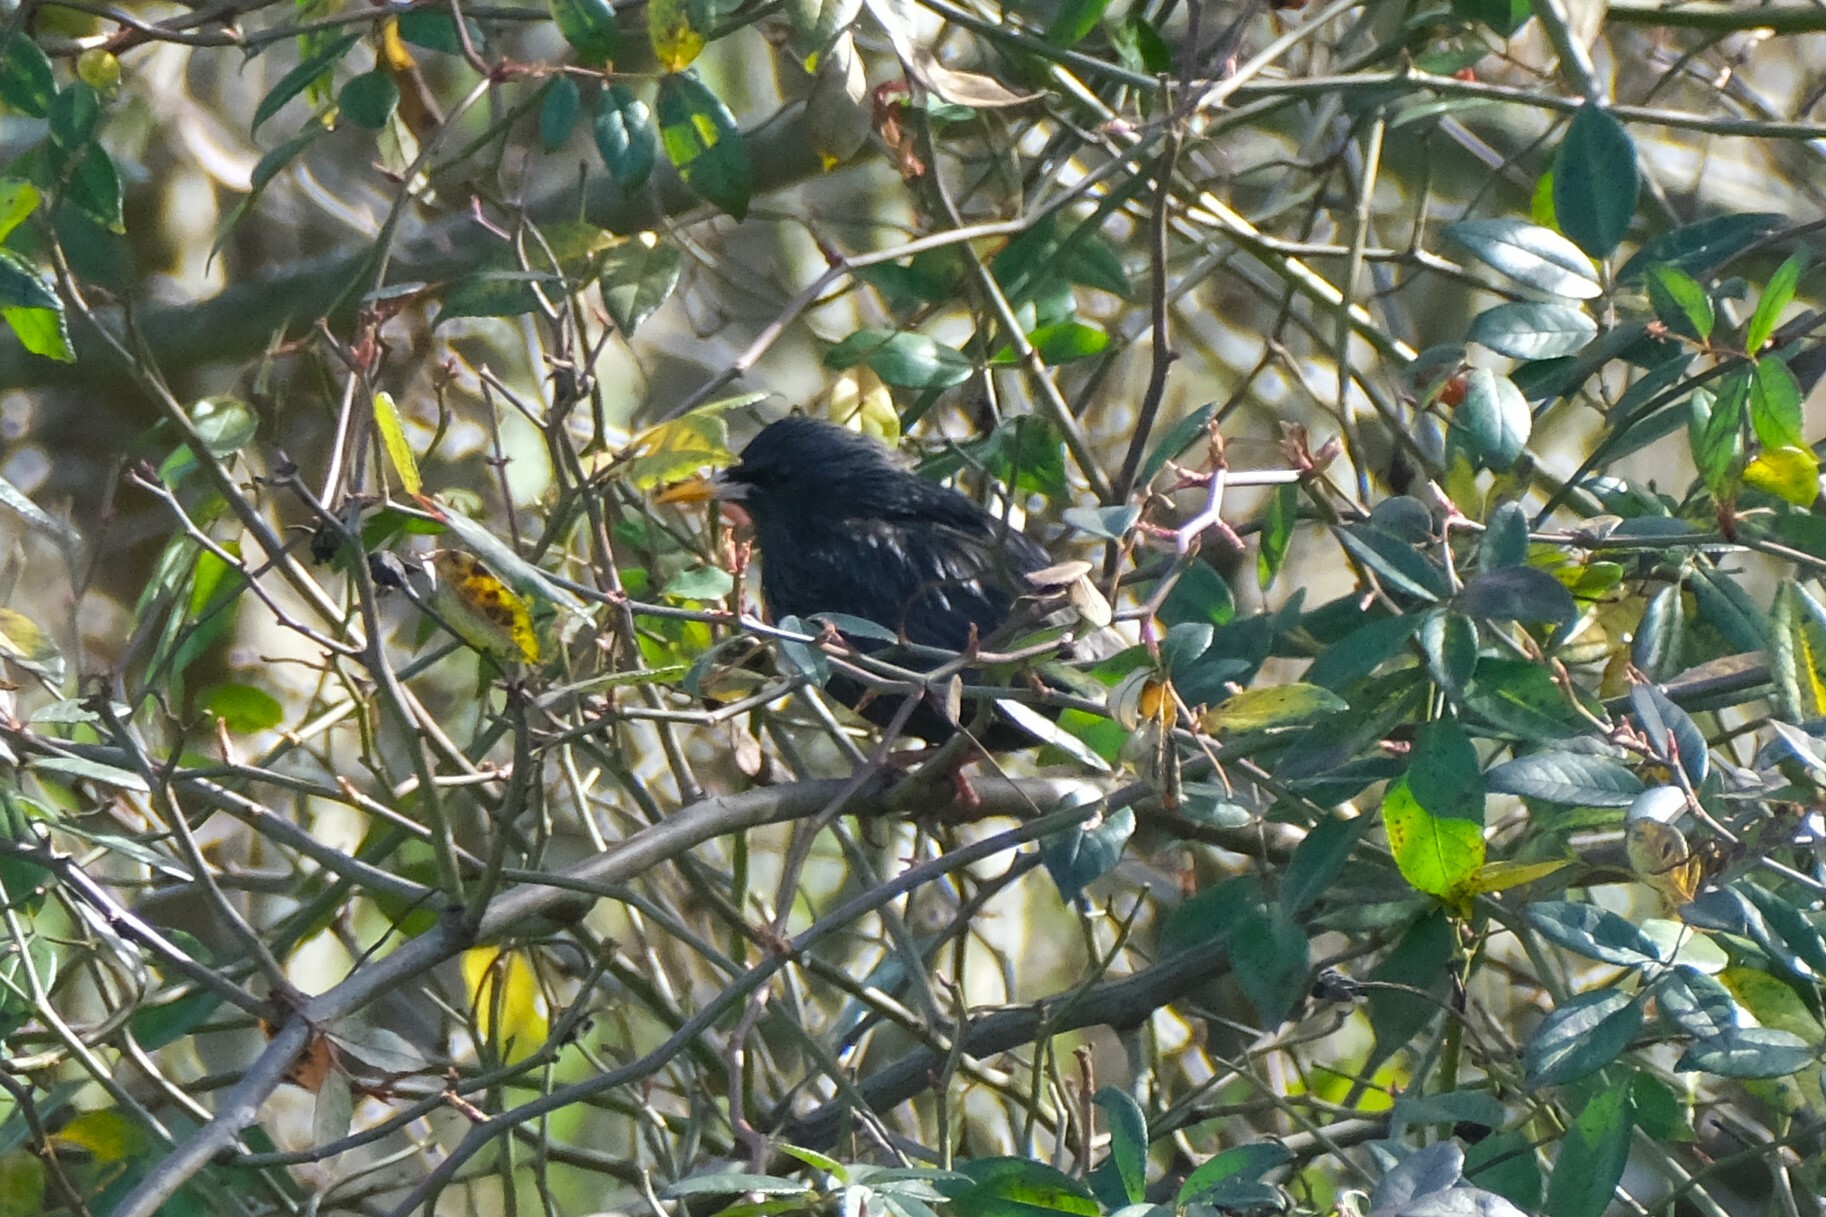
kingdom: Animalia
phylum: Chordata
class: Aves
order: Passeriformes
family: Sturnidae
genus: Sturnus
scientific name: Sturnus unicolor
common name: Spotless starling
